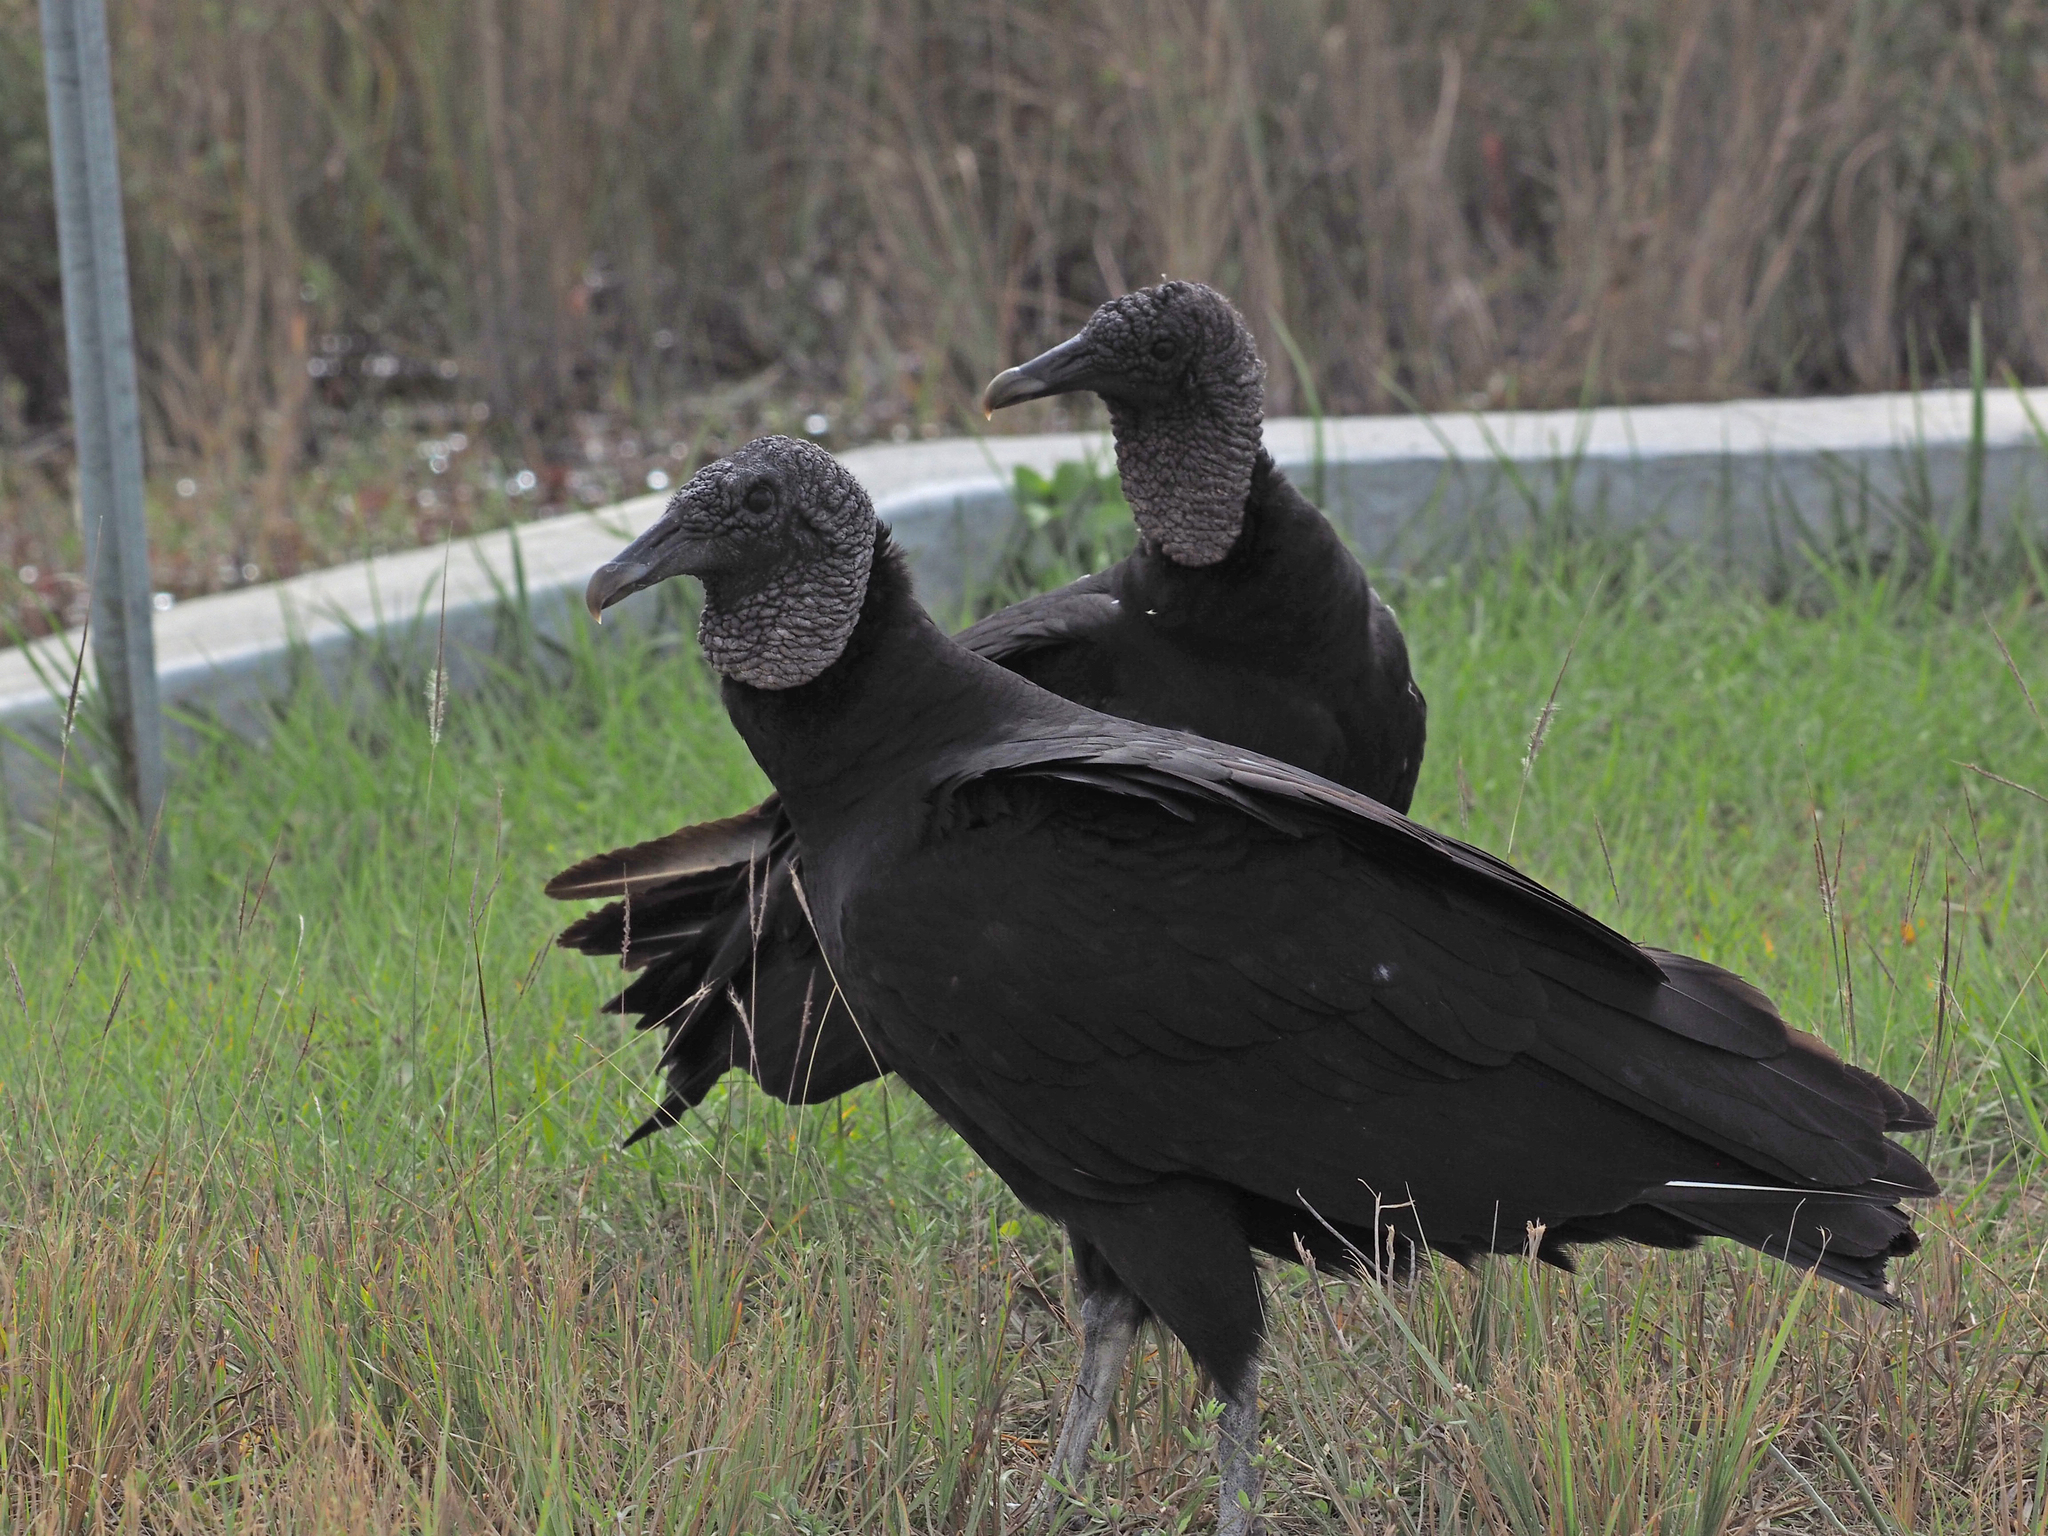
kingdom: Animalia
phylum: Chordata
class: Aves
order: Accipitriformes
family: Cathartidae
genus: Coragyps
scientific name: Coragyps atratus
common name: Black vulture
